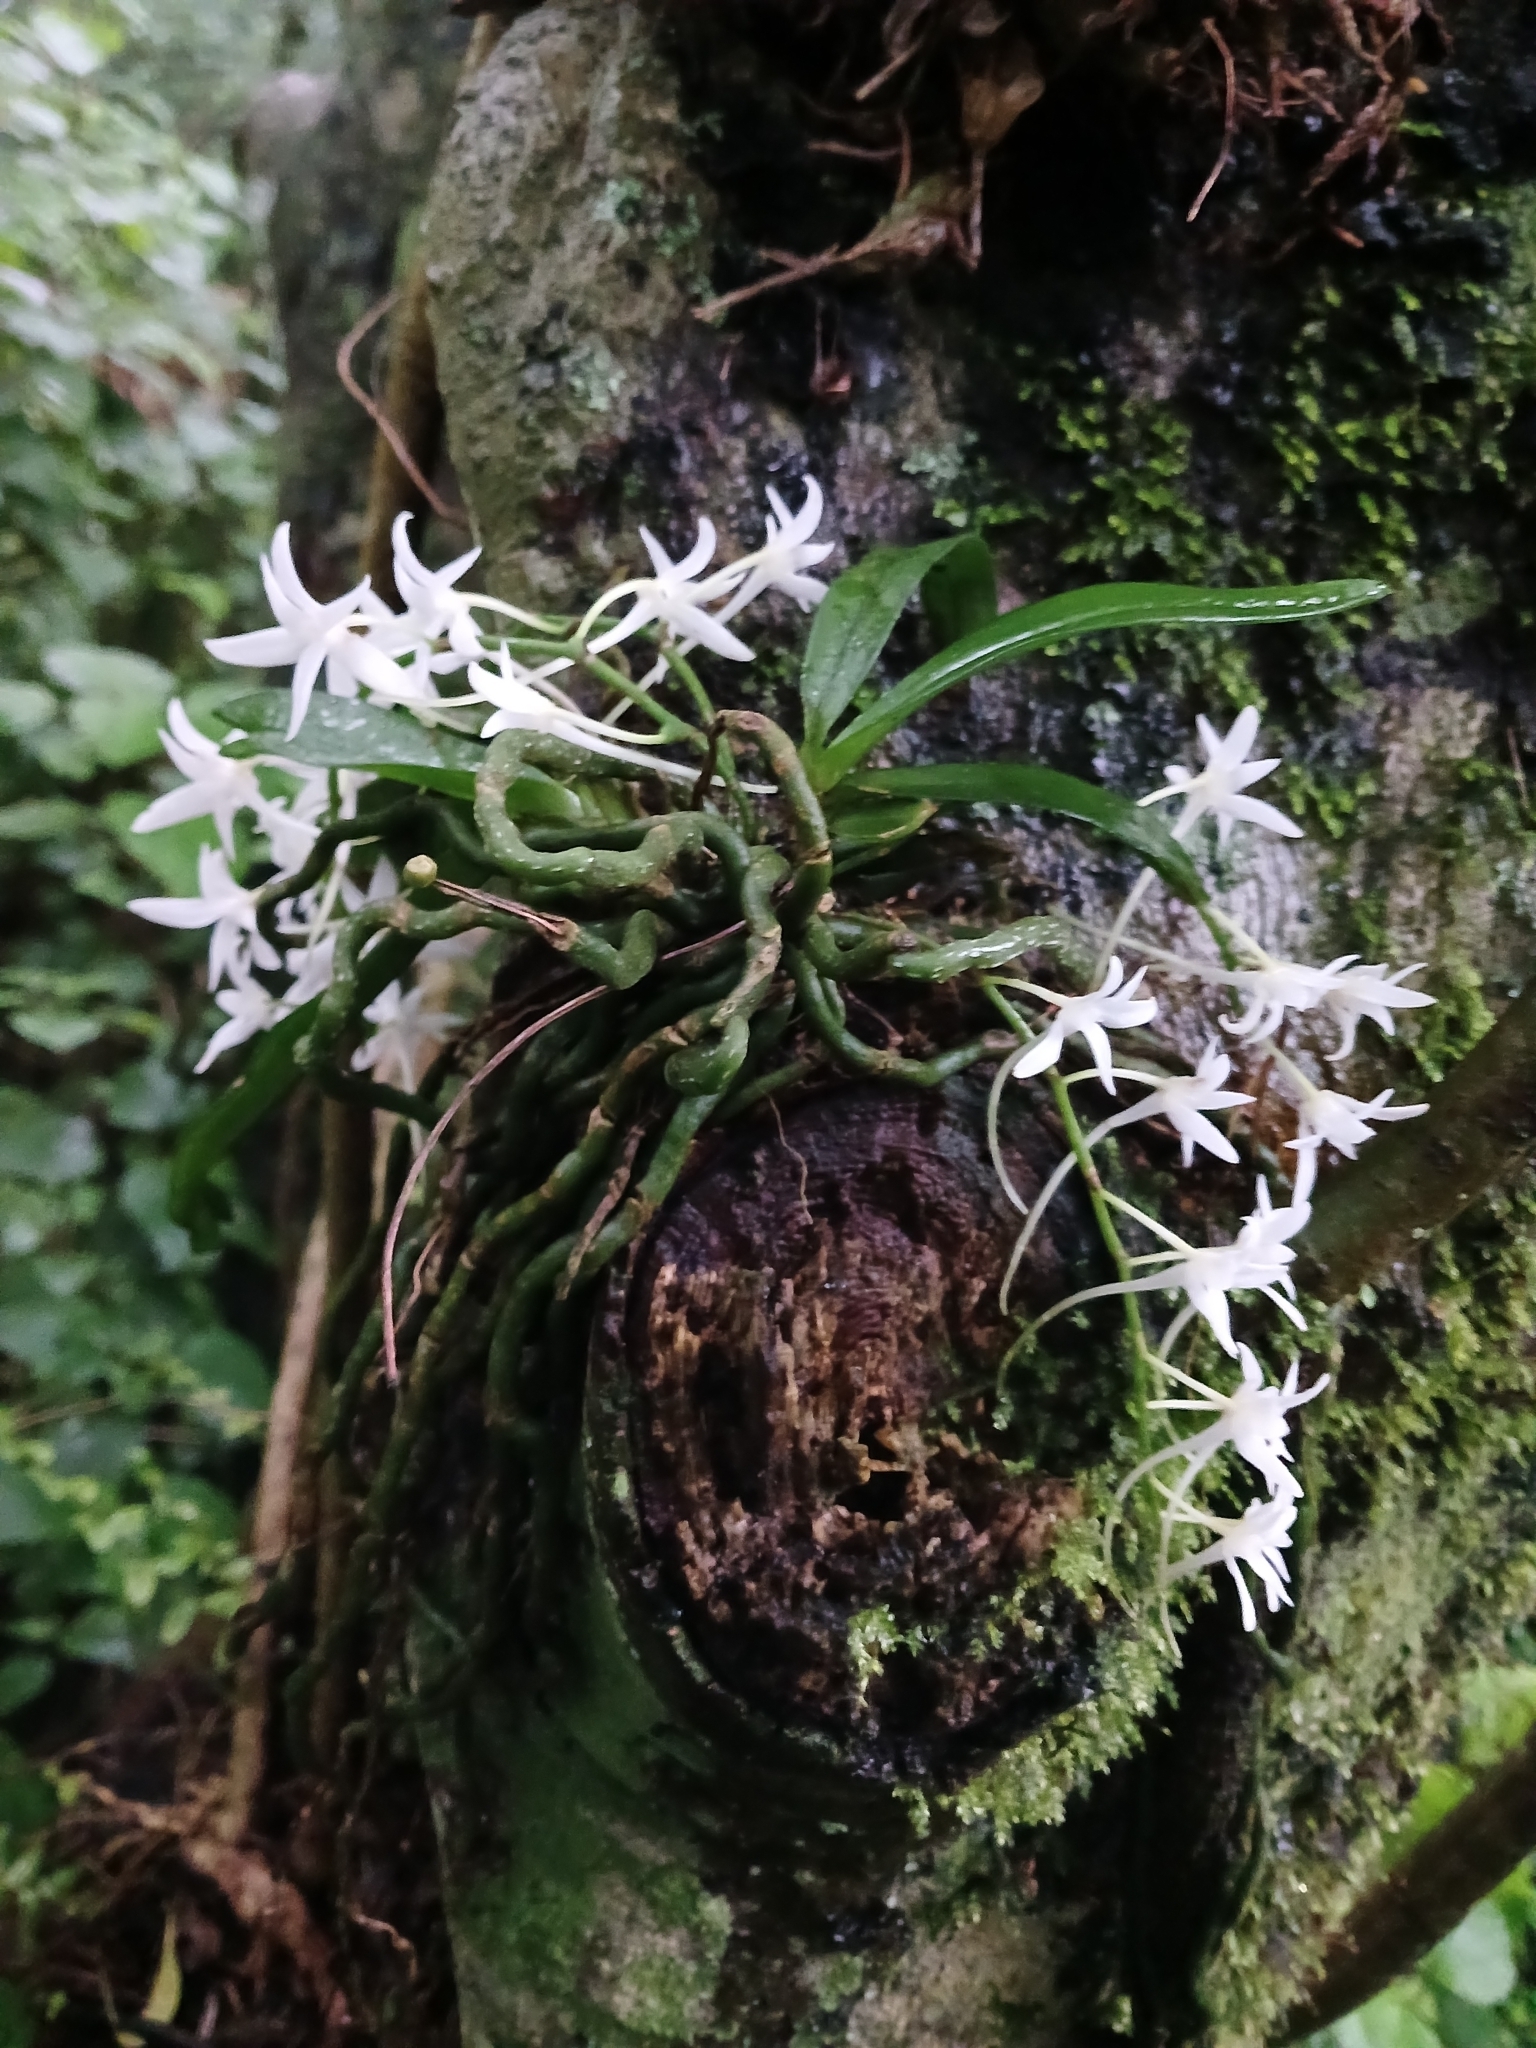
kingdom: Plantae
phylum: Tracheophyta
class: Liliopsida
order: Asparagales
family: Orchidaceae
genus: Mystacidium
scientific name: Mystacidium capense
